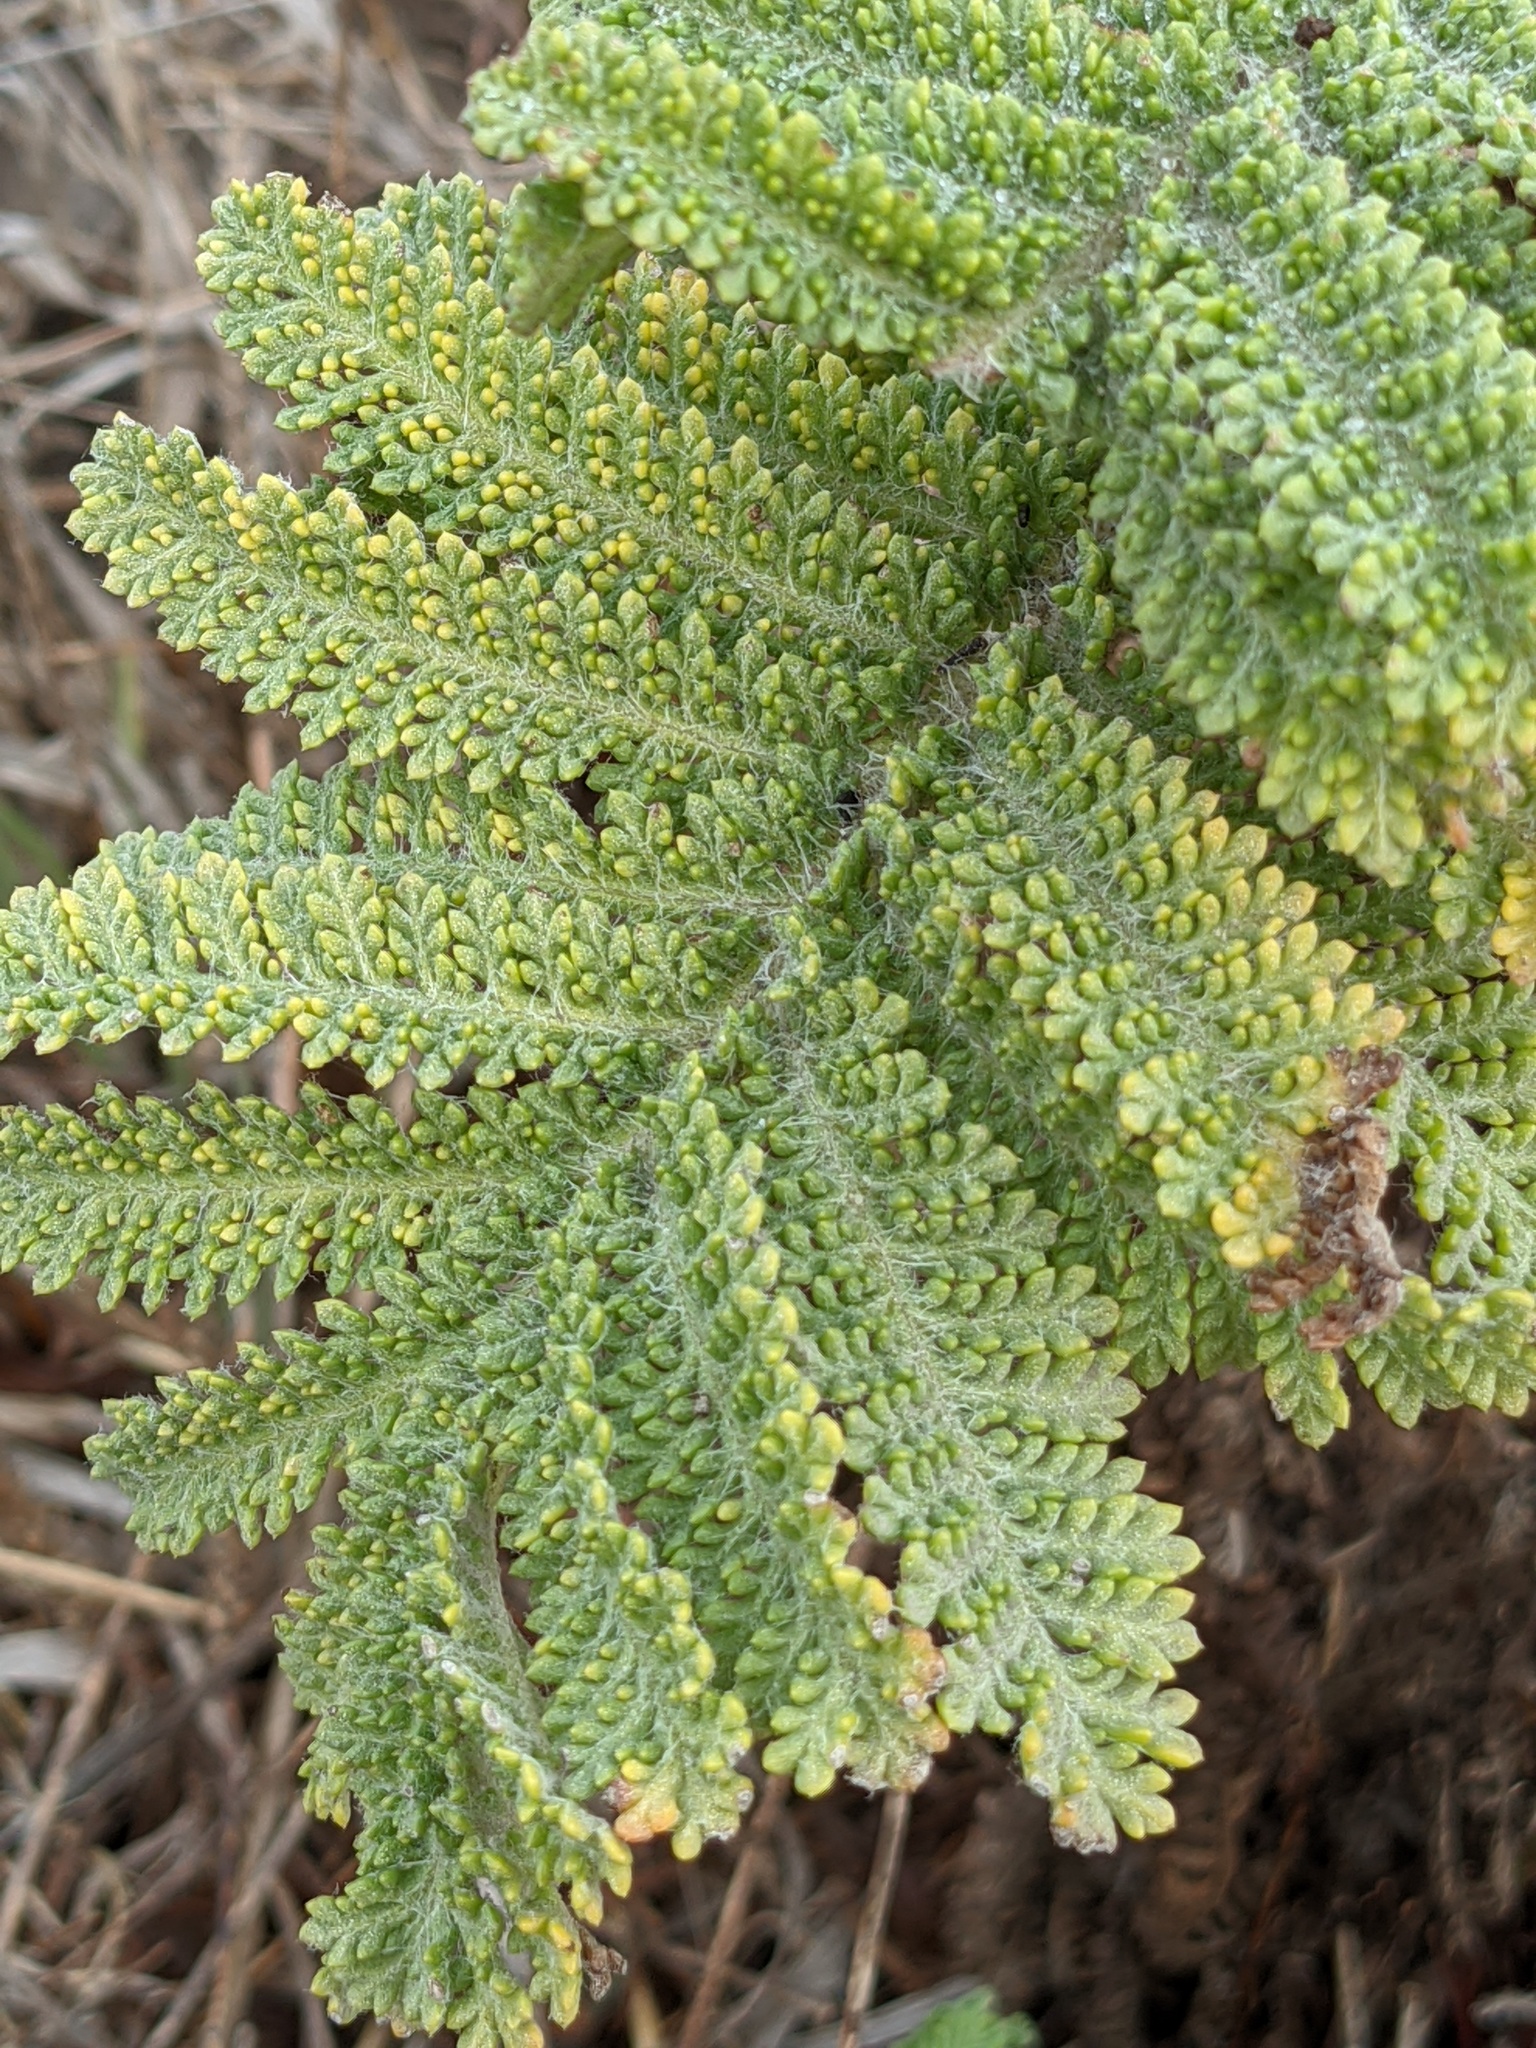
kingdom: Plantae
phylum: Tracheophyta
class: Magnoliopsida
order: Asterales
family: Asteraceae
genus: Tanacetum
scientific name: Tanacetum bipinnatum
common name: Dwarf tansy
